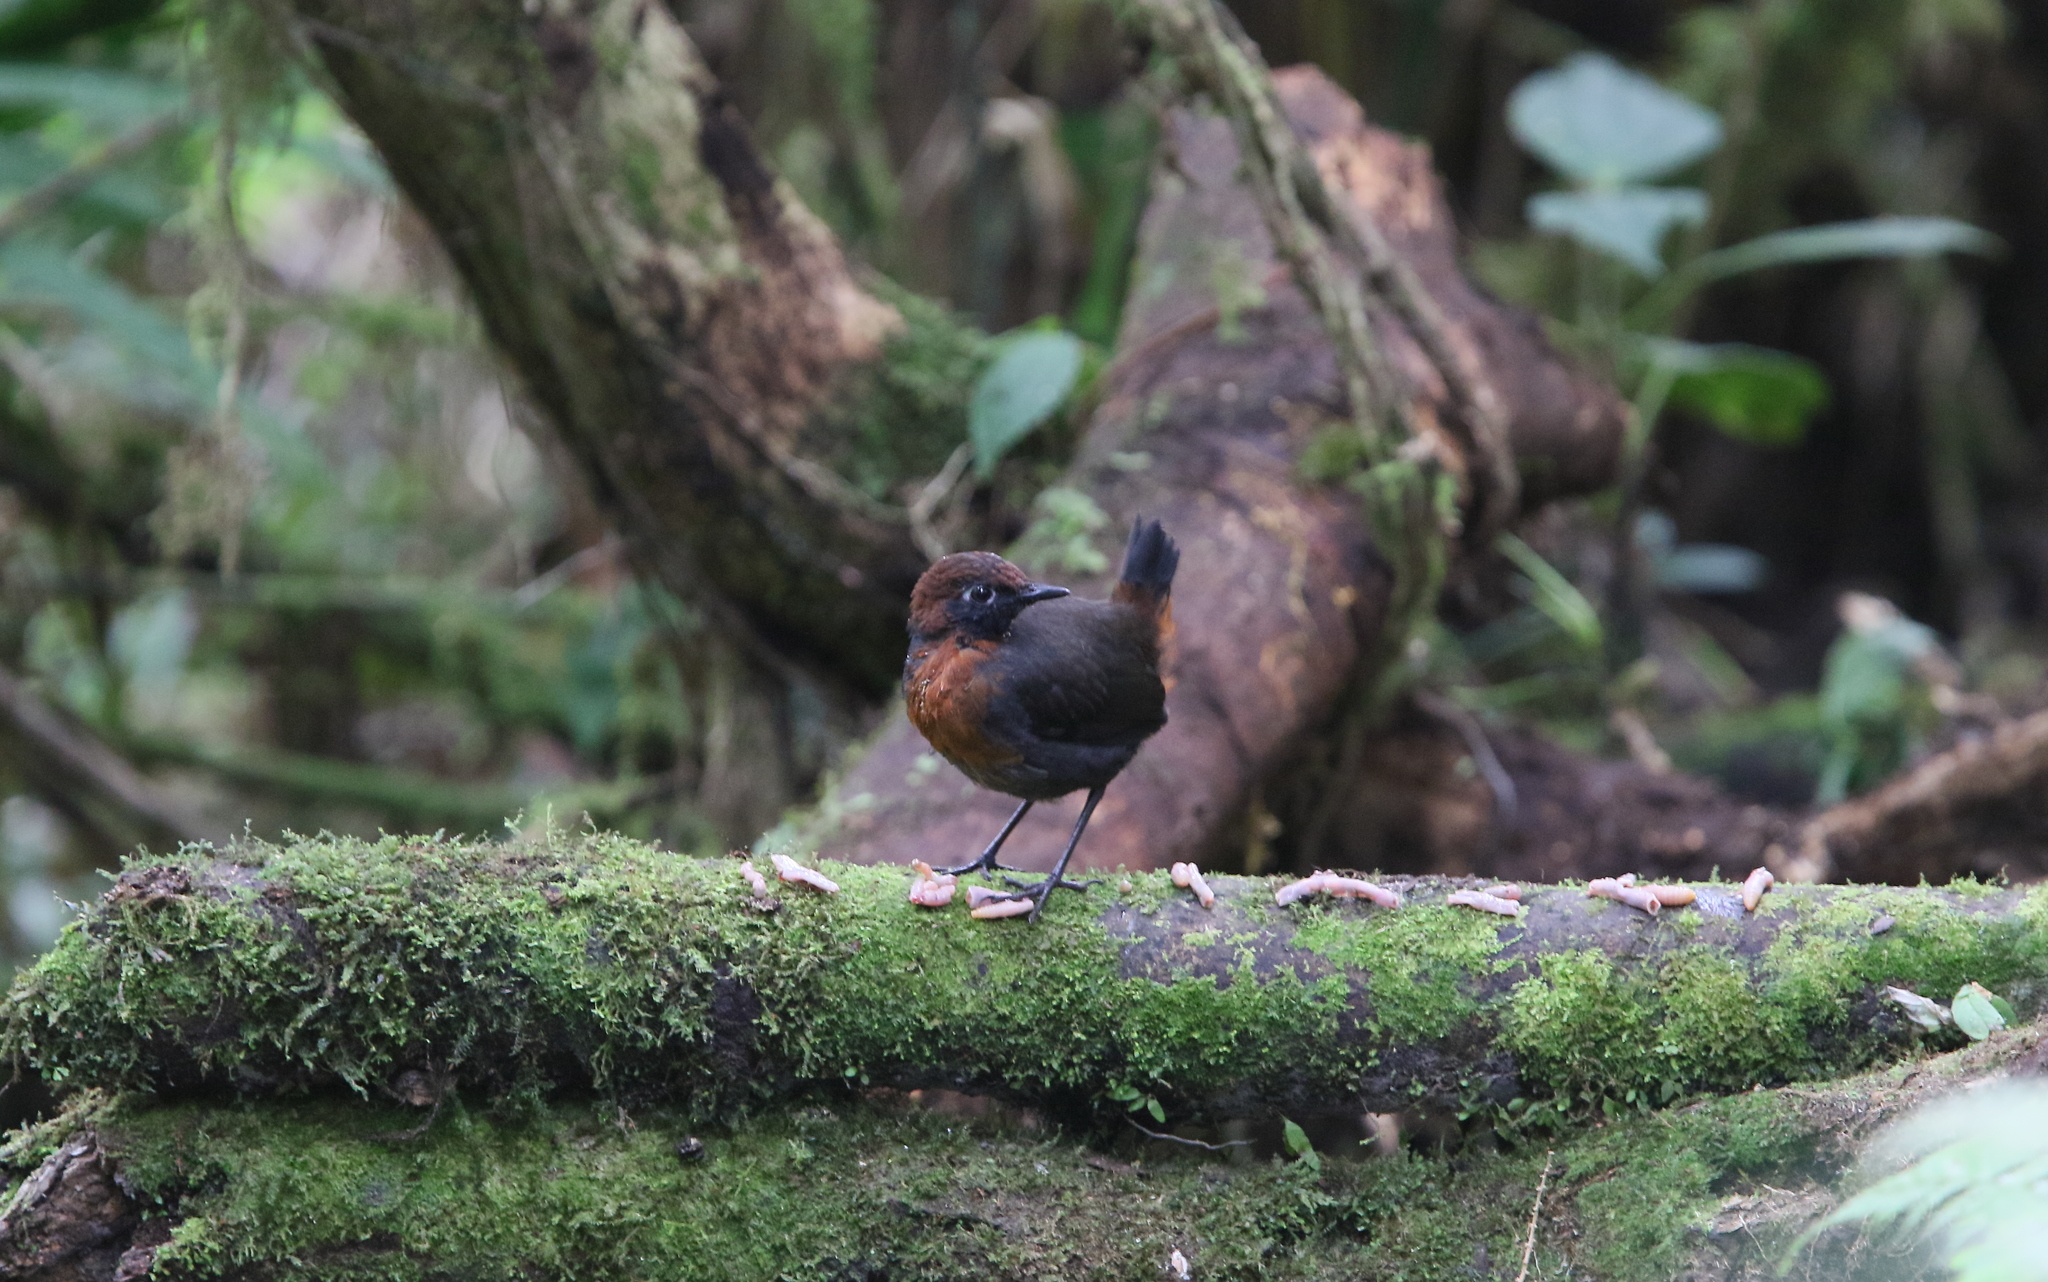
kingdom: Animalia
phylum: Chordata
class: Aves
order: Passeriformes
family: Formicariidae
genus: Formicarius
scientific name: Formicarius rufipectus
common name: Rufous-breasted antthrush
